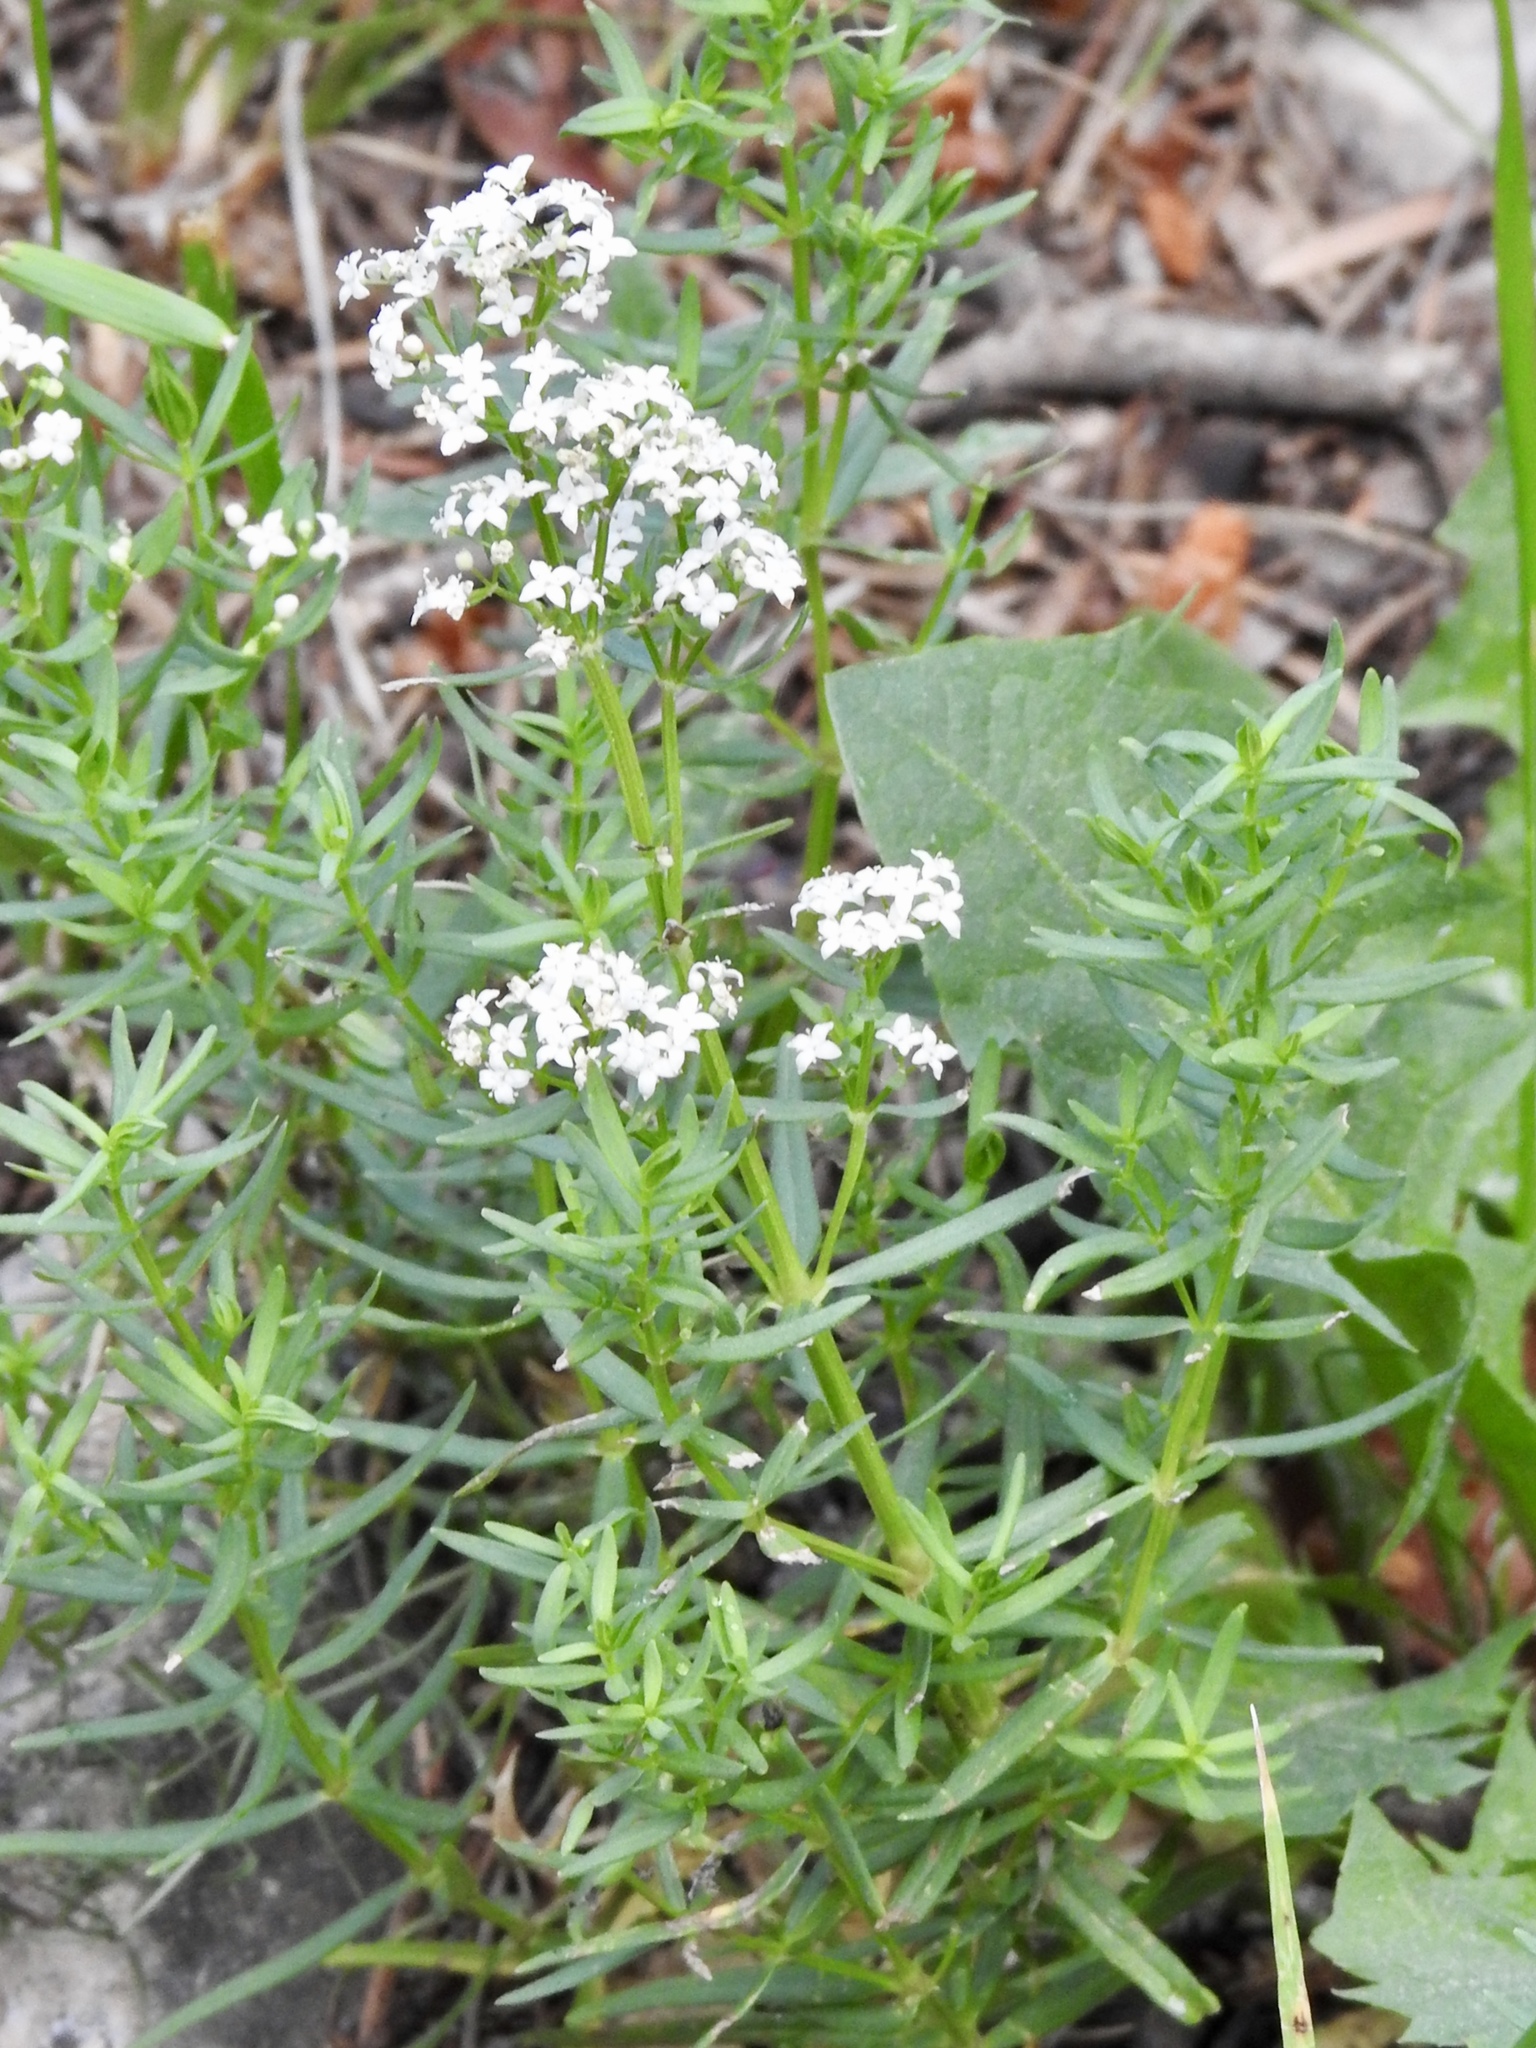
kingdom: Plantae
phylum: Tracheophyta
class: Magnoliopsida
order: Gentianales
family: Rubiaceae
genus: Galium
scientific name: Galium boreale
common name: Northern bedstraw
